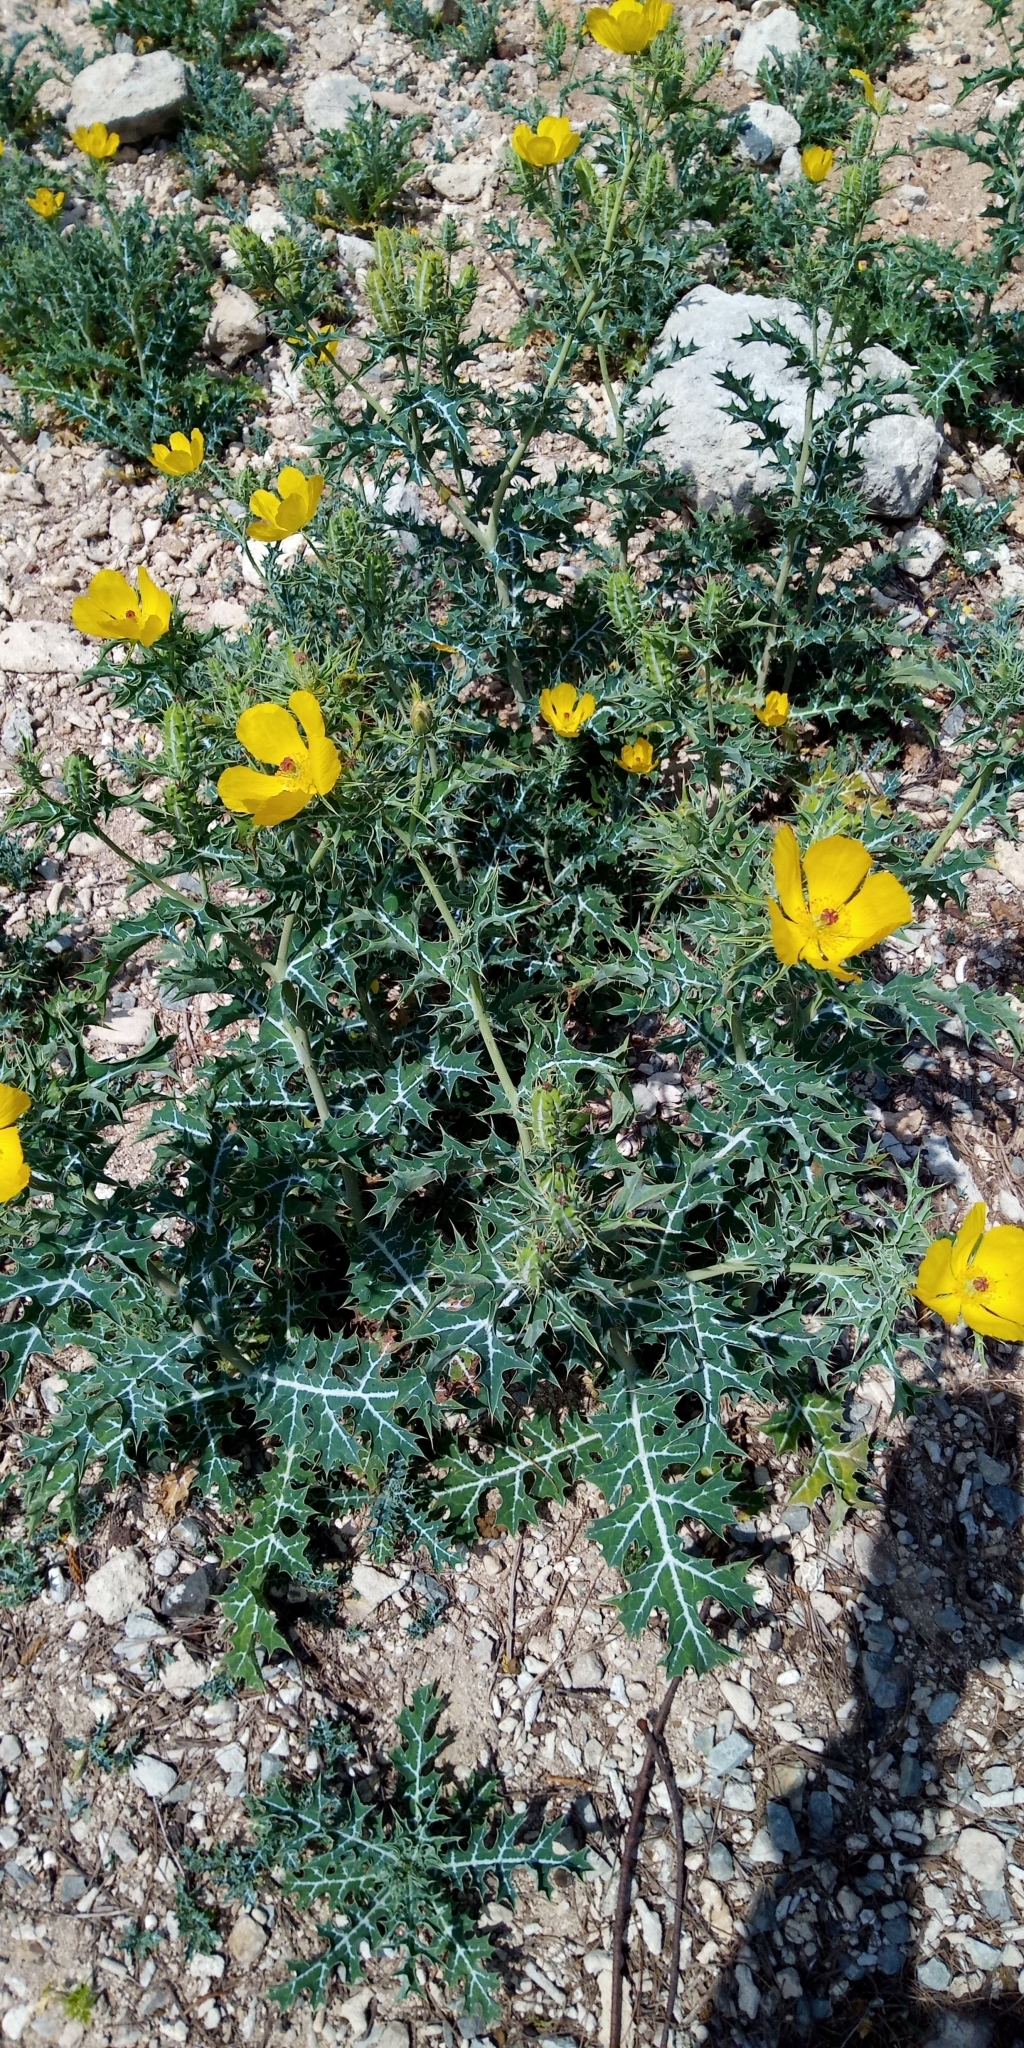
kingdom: Plantae
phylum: Tracheophyta
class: Magnoliopsida
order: Ranunculales
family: Papaveraceae
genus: Argemone
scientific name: Argemone mexicana
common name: Mexican poppy
